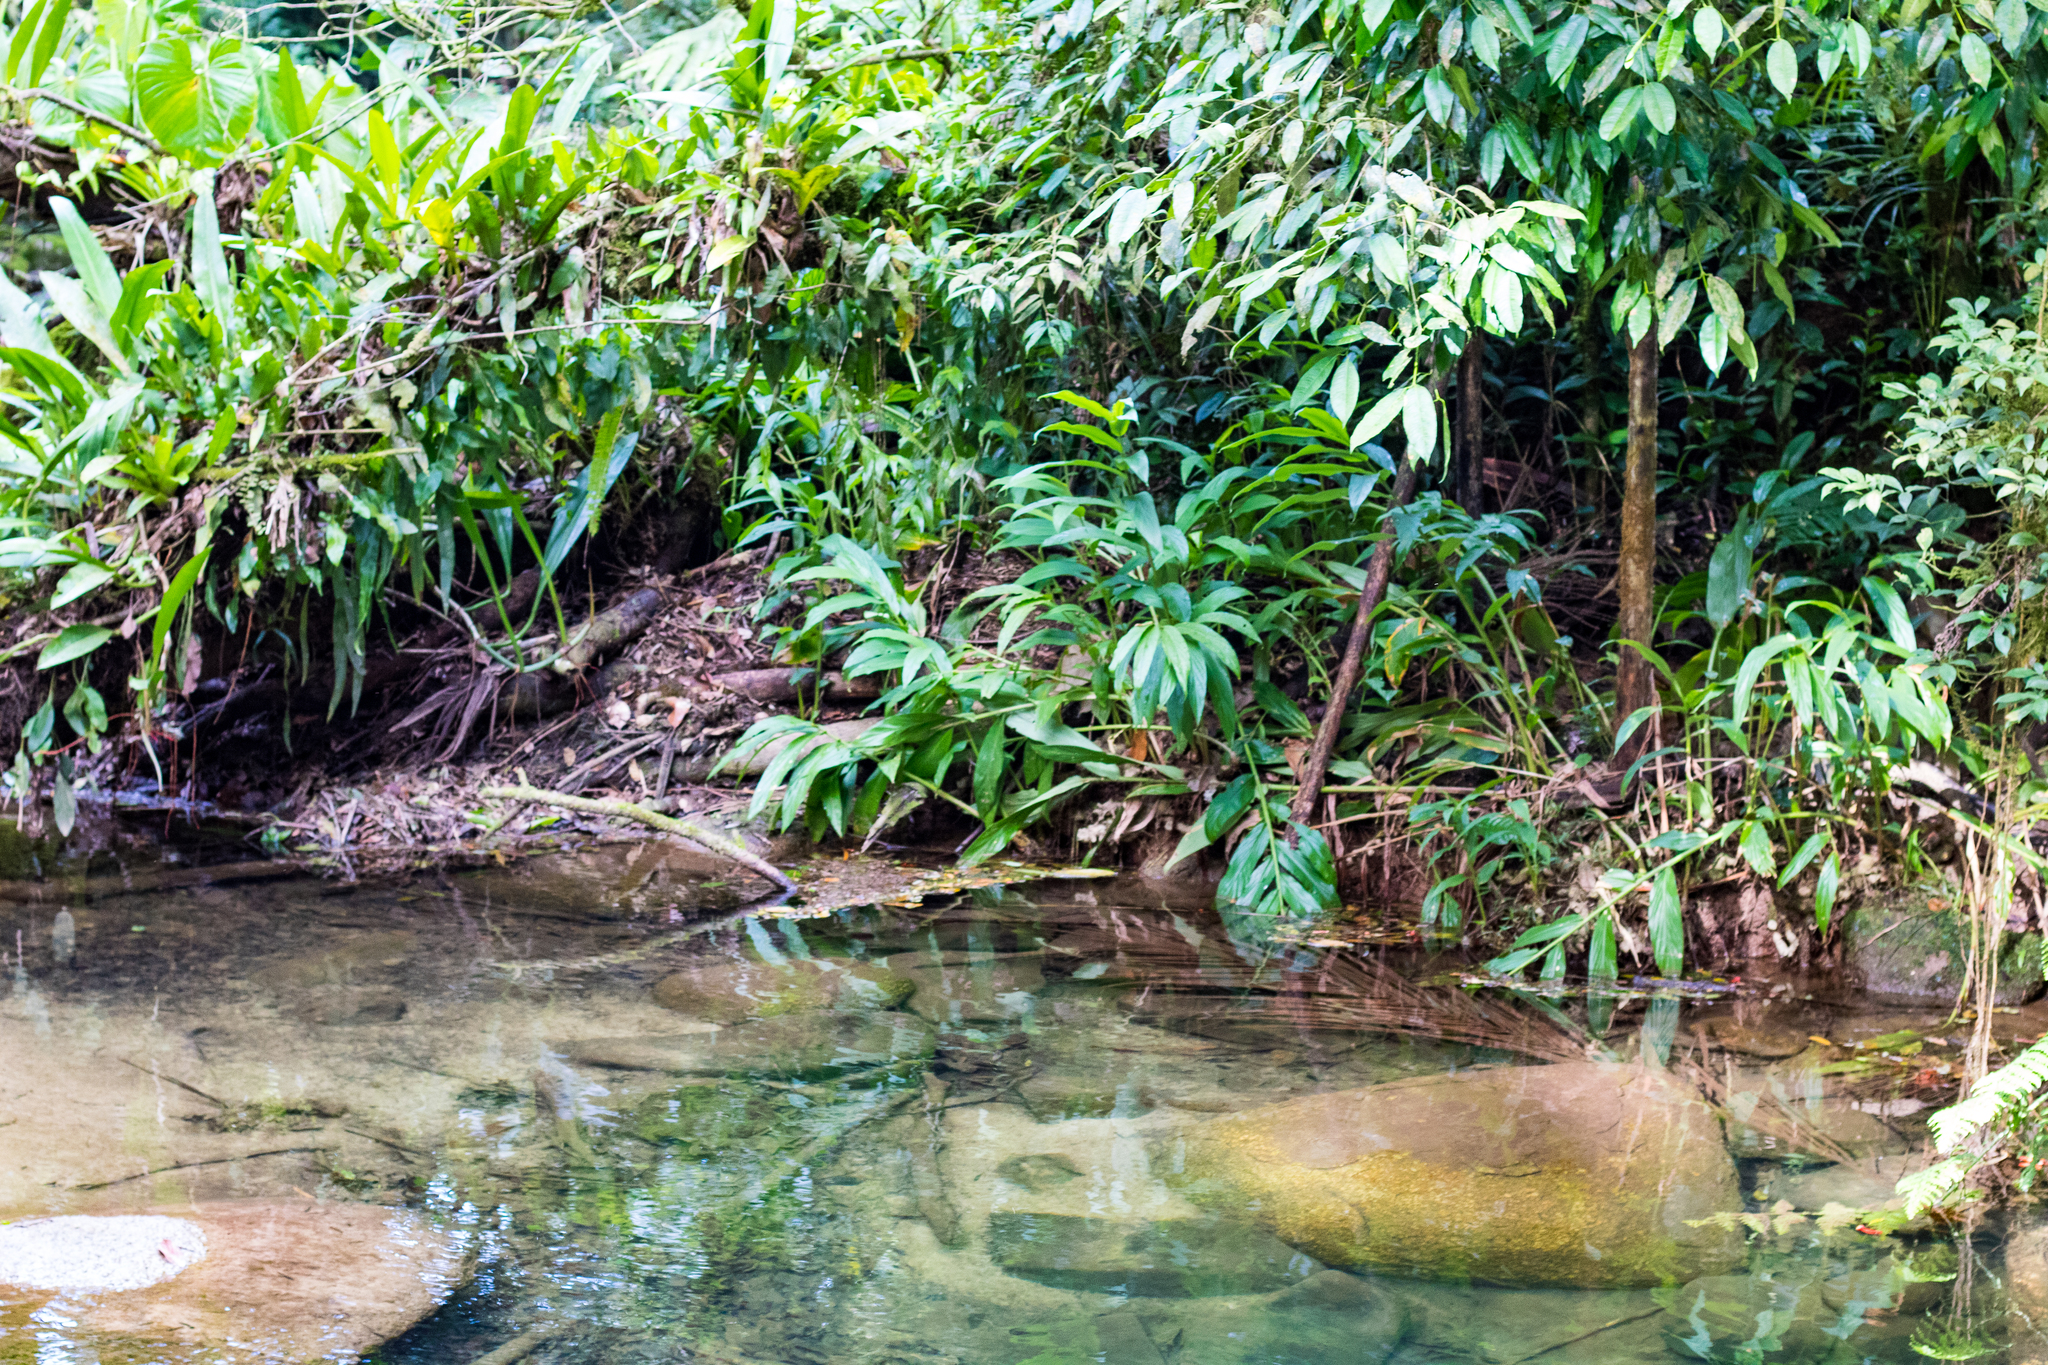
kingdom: Plantae
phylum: Tracheophyta
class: Liliopsida
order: Zingiberales
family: Zingiberaceae
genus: Hedychium
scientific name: Hedychium coronarium
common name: White garland-lily
